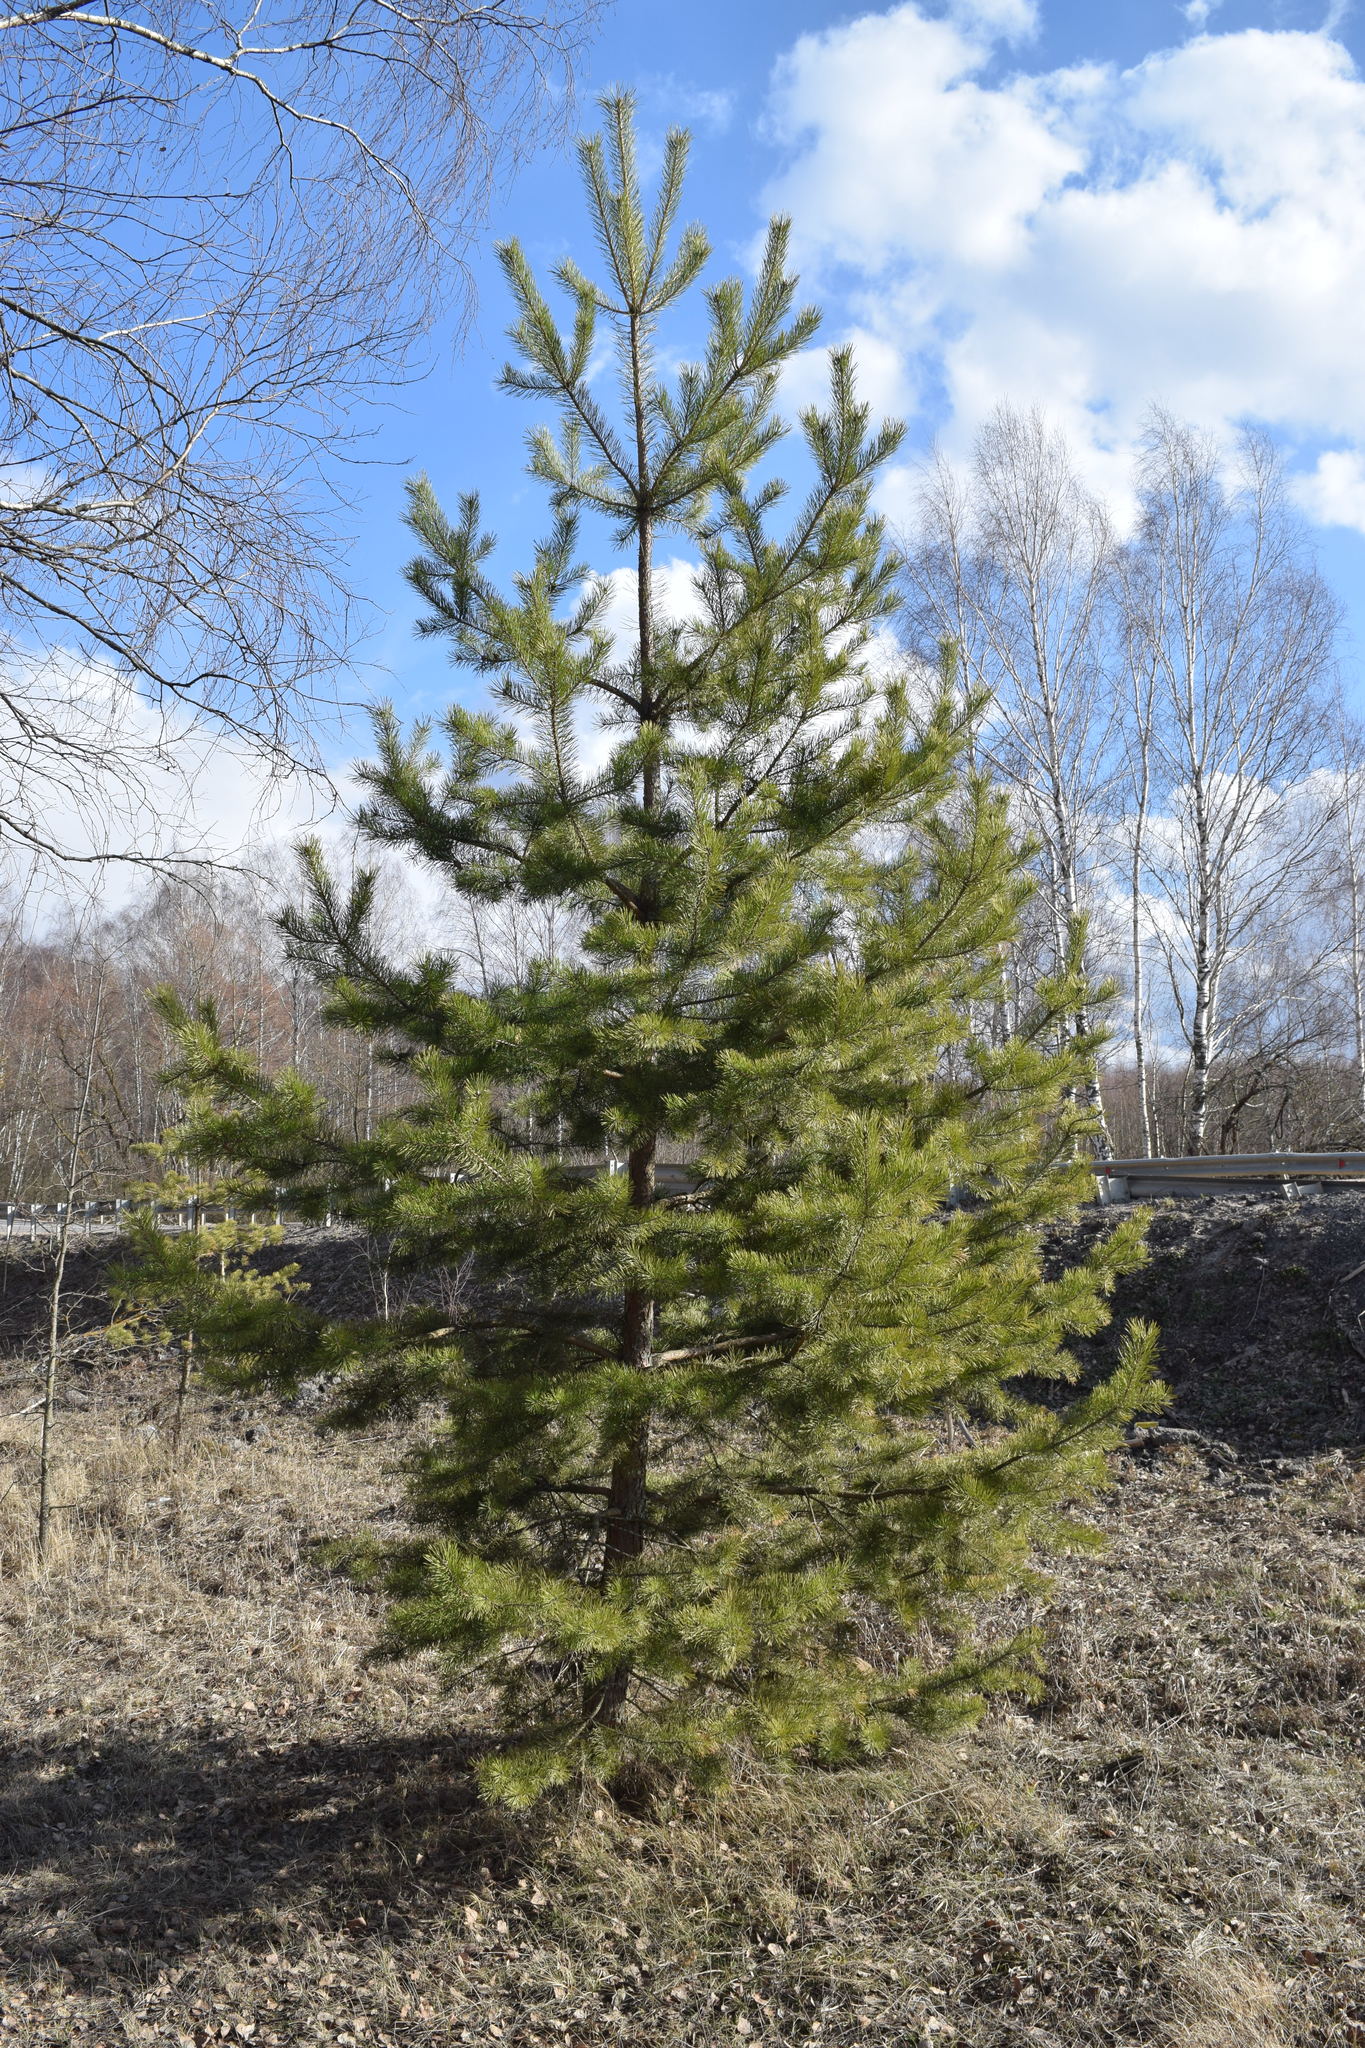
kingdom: Plantae
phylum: Tracheophyta
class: Pinopsida
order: Pinales
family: Pinaceae
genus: Pinus
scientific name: Pinus sylvestris
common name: Scots pine
